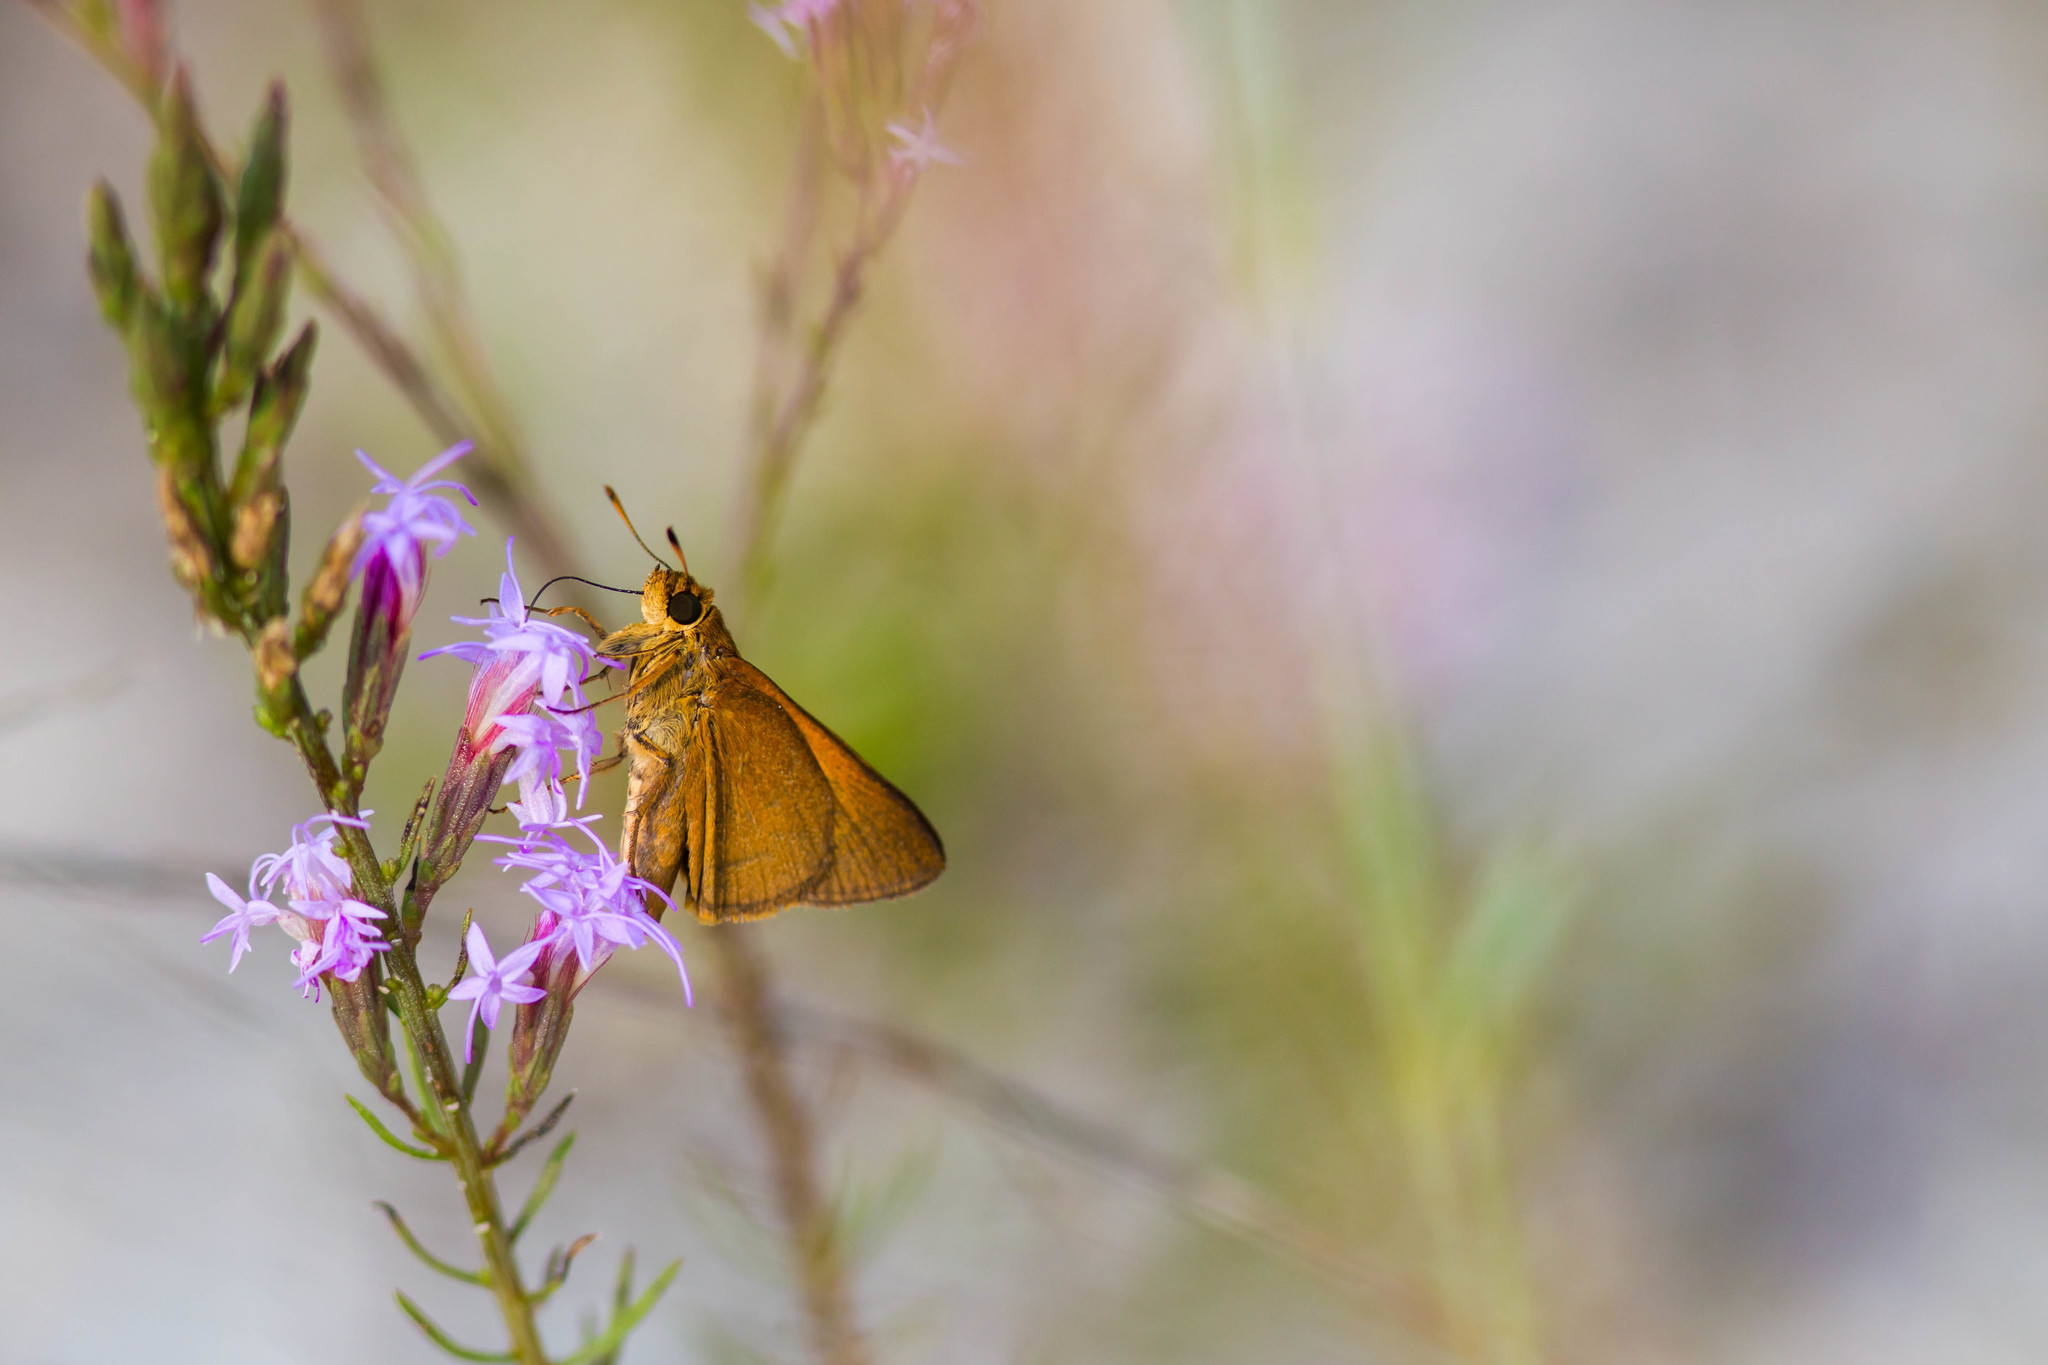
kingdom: Animalia
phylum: Arthropoda
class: Insecta
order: Lepidoptera
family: Hesperiidae
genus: Euphyes
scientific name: Euphyes pilatka
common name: Palatka skipper
